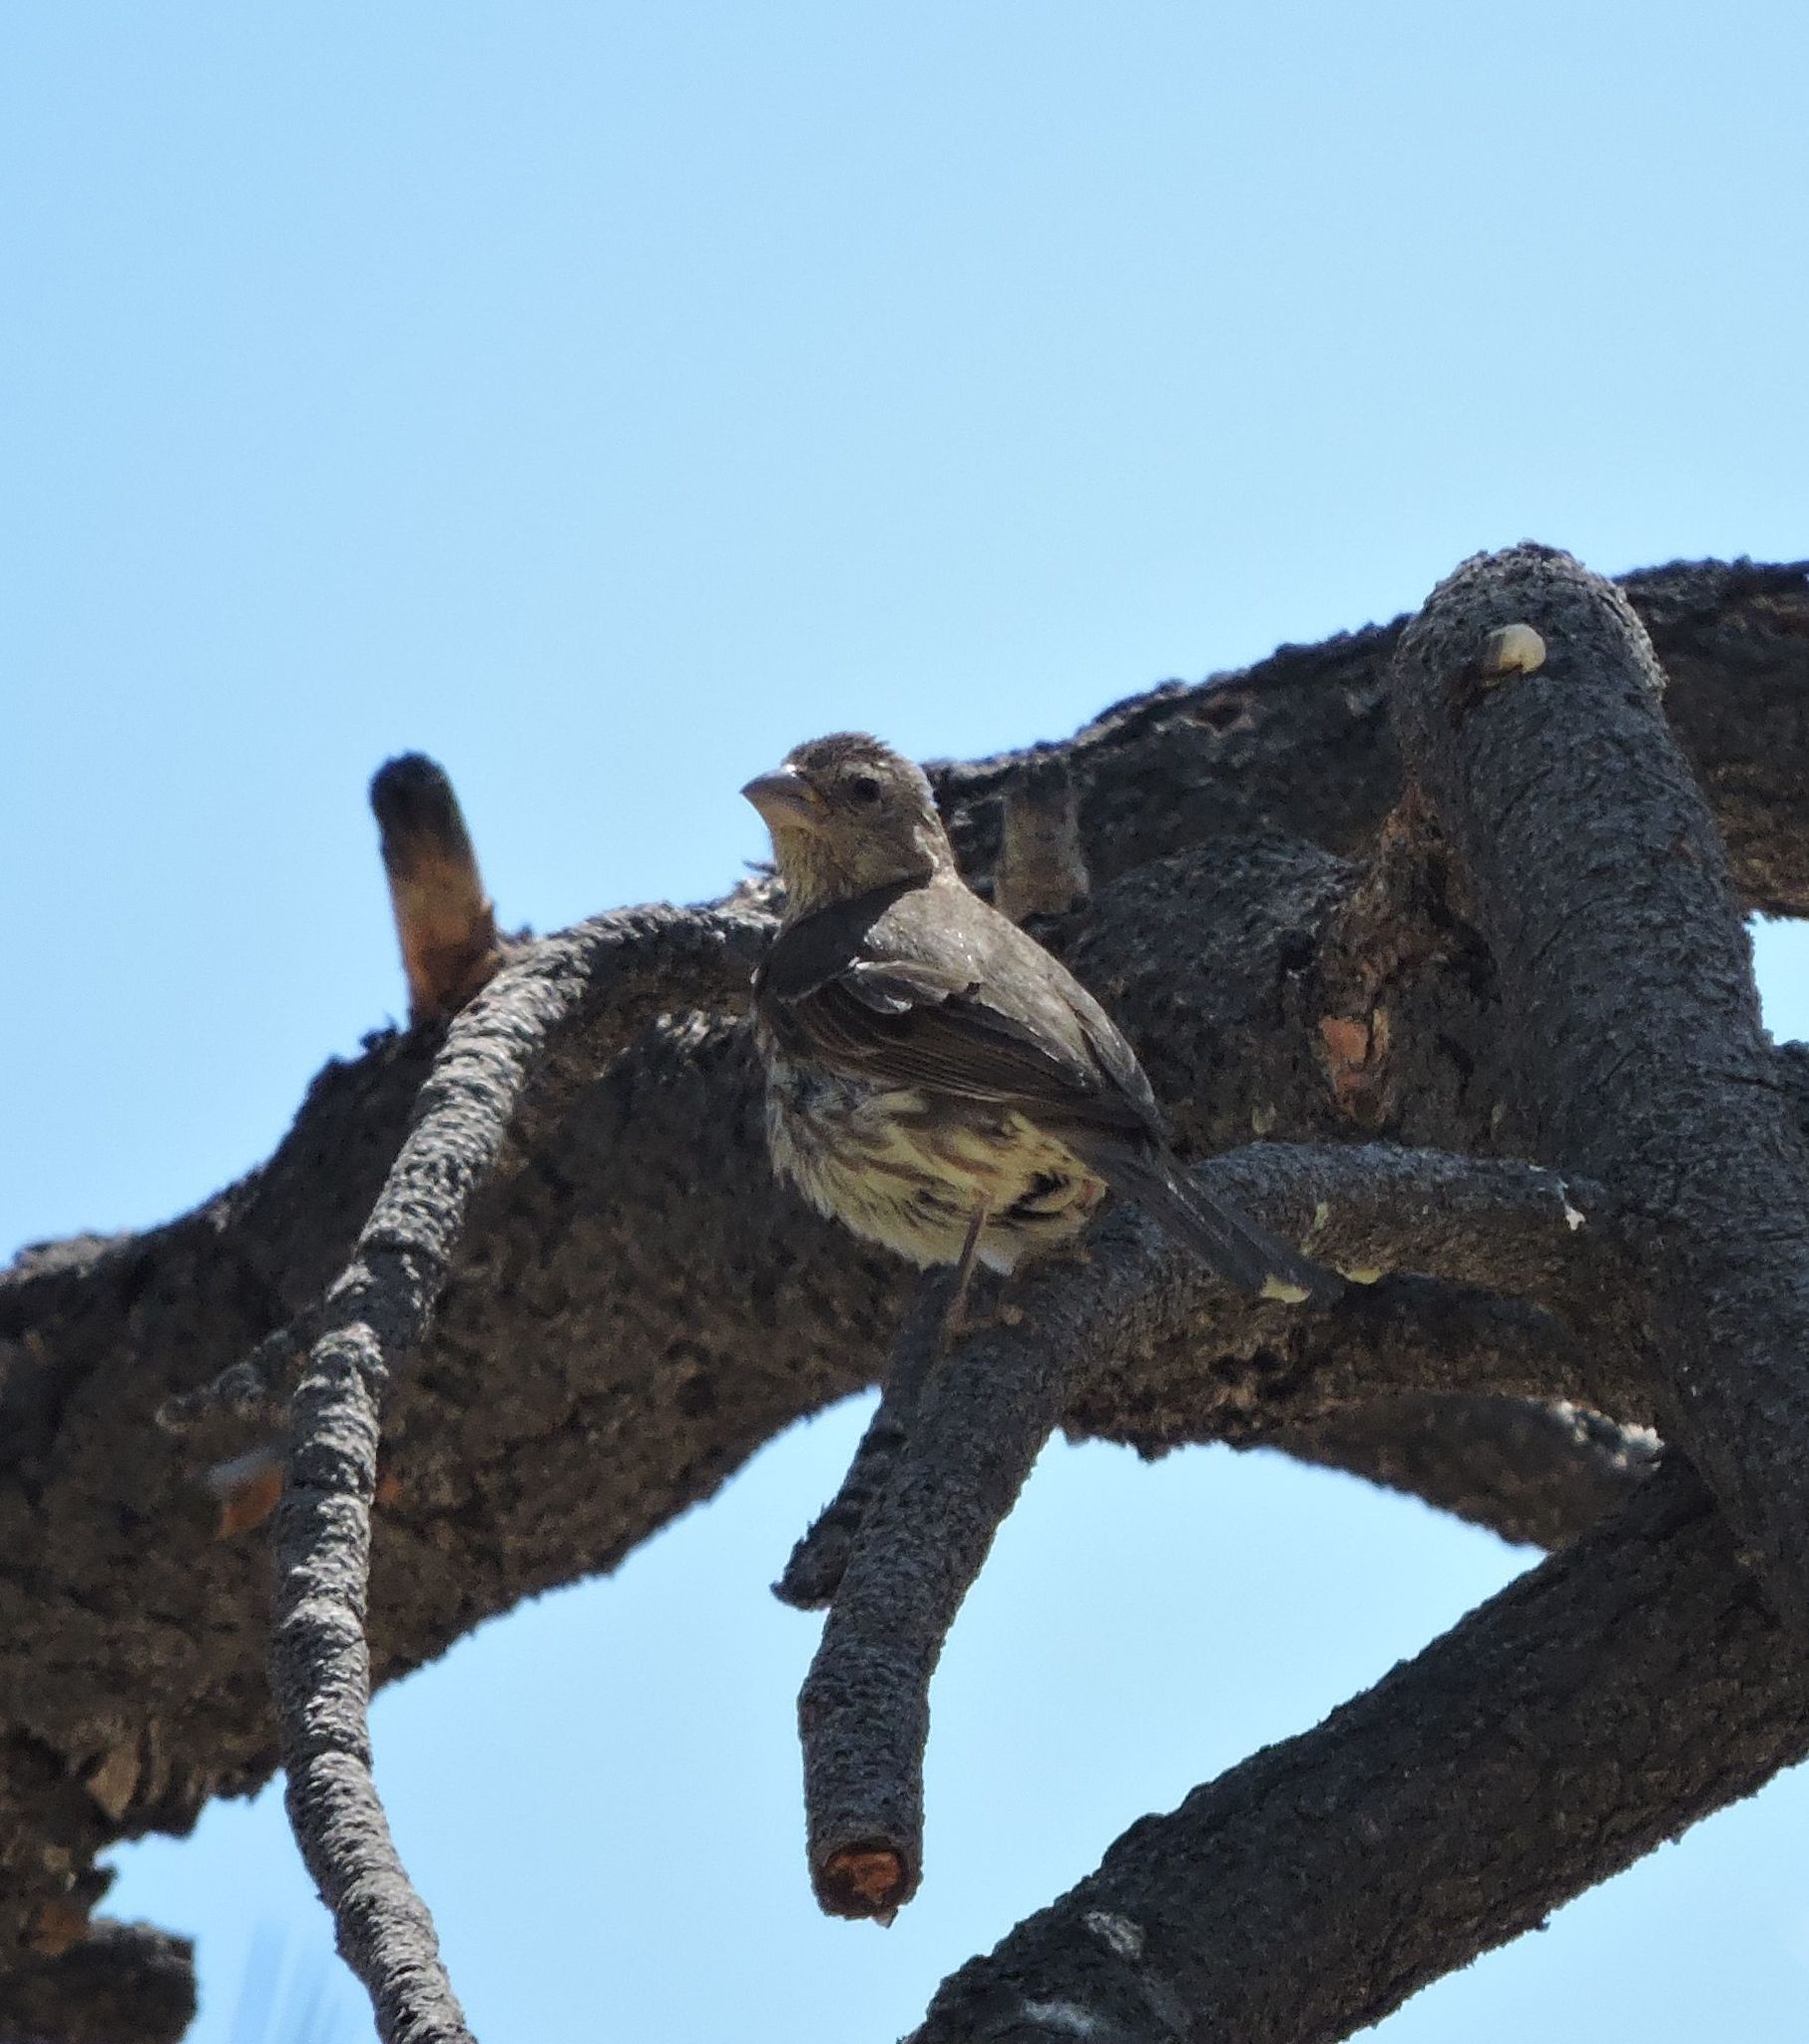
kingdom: Animalia
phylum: Chordata
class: Aves
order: Passeriformes
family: Fringillidae
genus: Haemorhous
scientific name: Haemorhous mexicanus
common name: House finch
